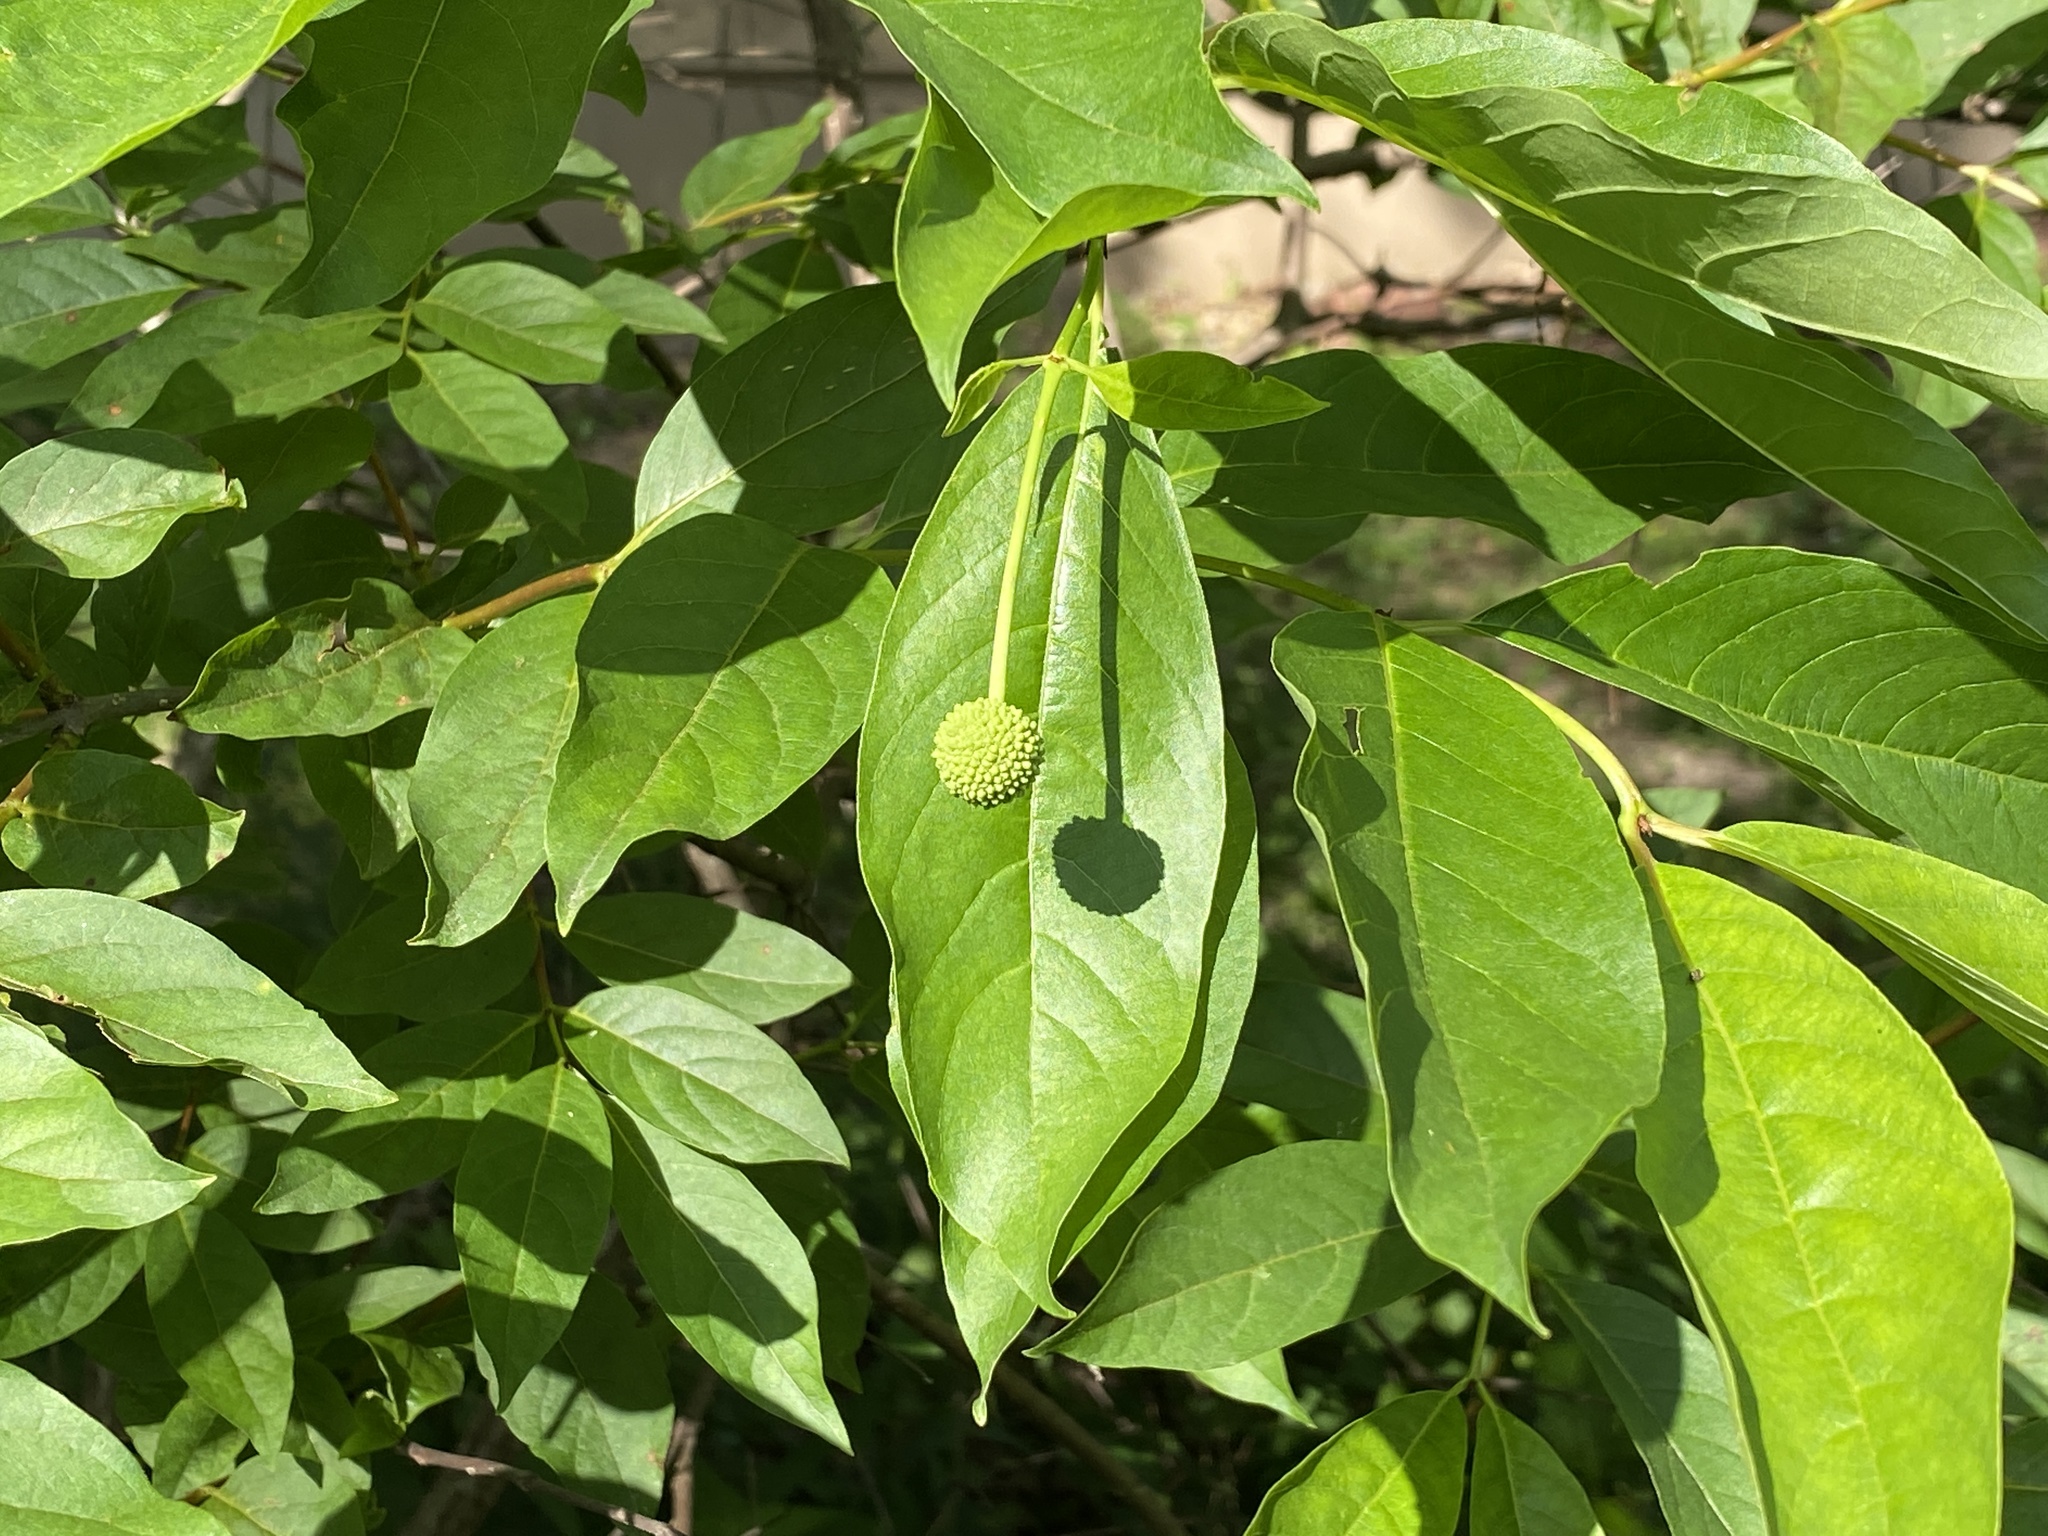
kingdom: Plantae
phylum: Tracheophyta
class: Magnoliopsida
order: Gentianales
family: Rubiaceae
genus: Cephalanthus
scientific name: Cephalanthus occidentalis
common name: Button-willow
